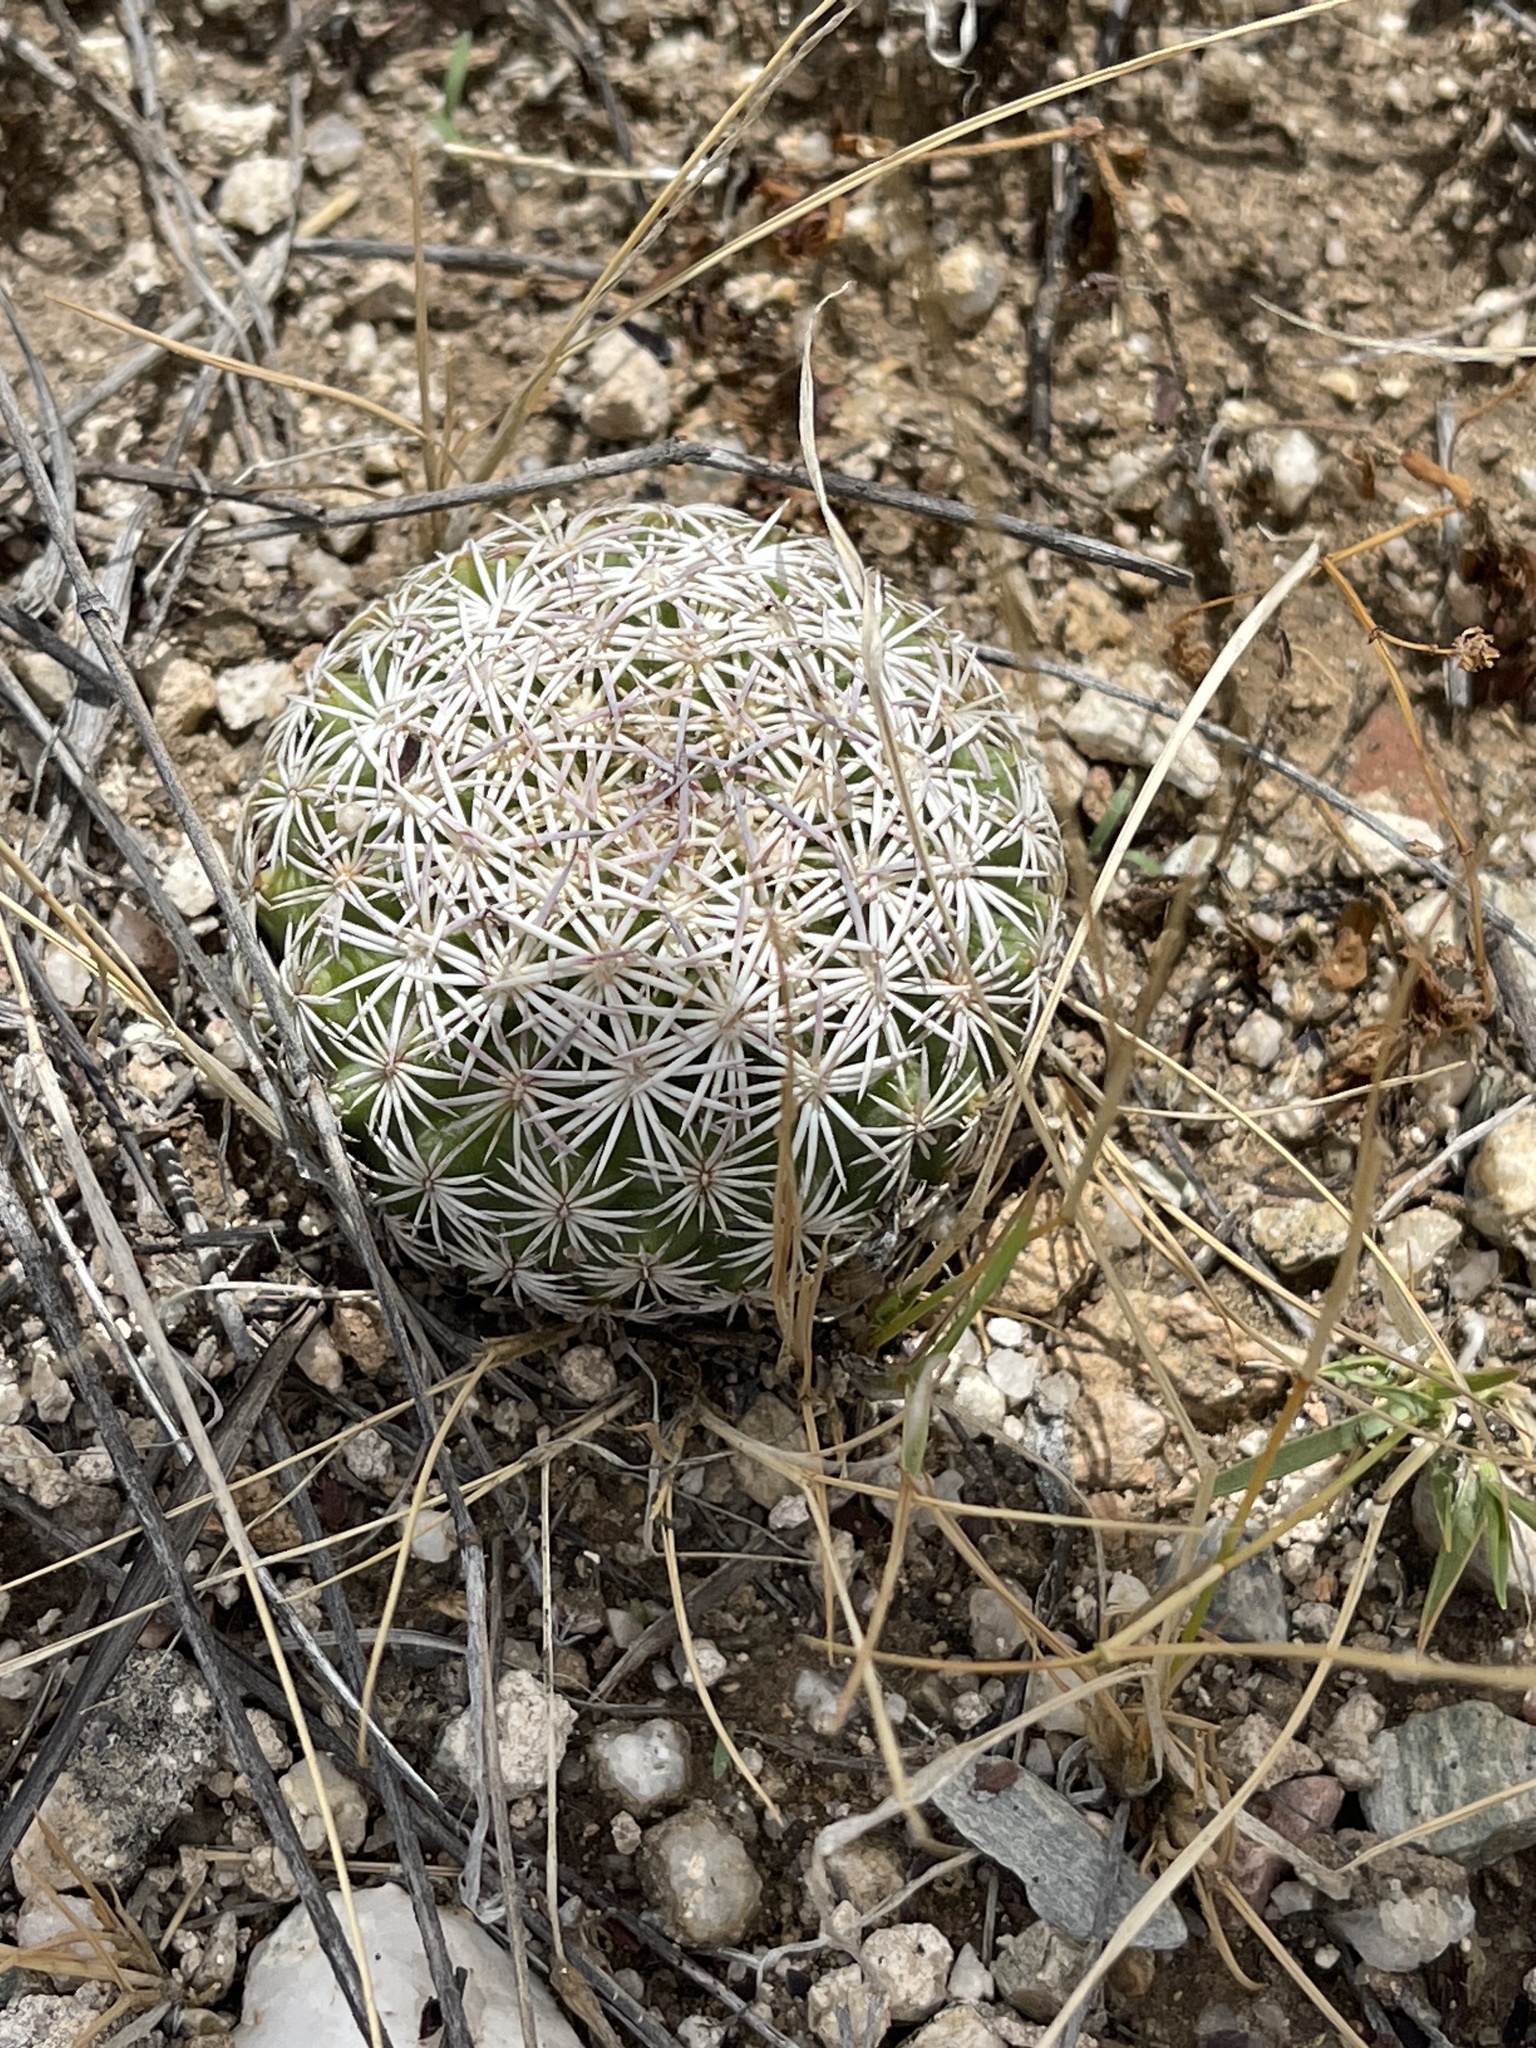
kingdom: Plantae
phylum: Tracheophyta
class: Magnoliopsida
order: Caryophyllales
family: Cactaceae
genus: Sclerocactus
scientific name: Sclerocactus johnsonii
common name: Eight-spine fishhook cactus
